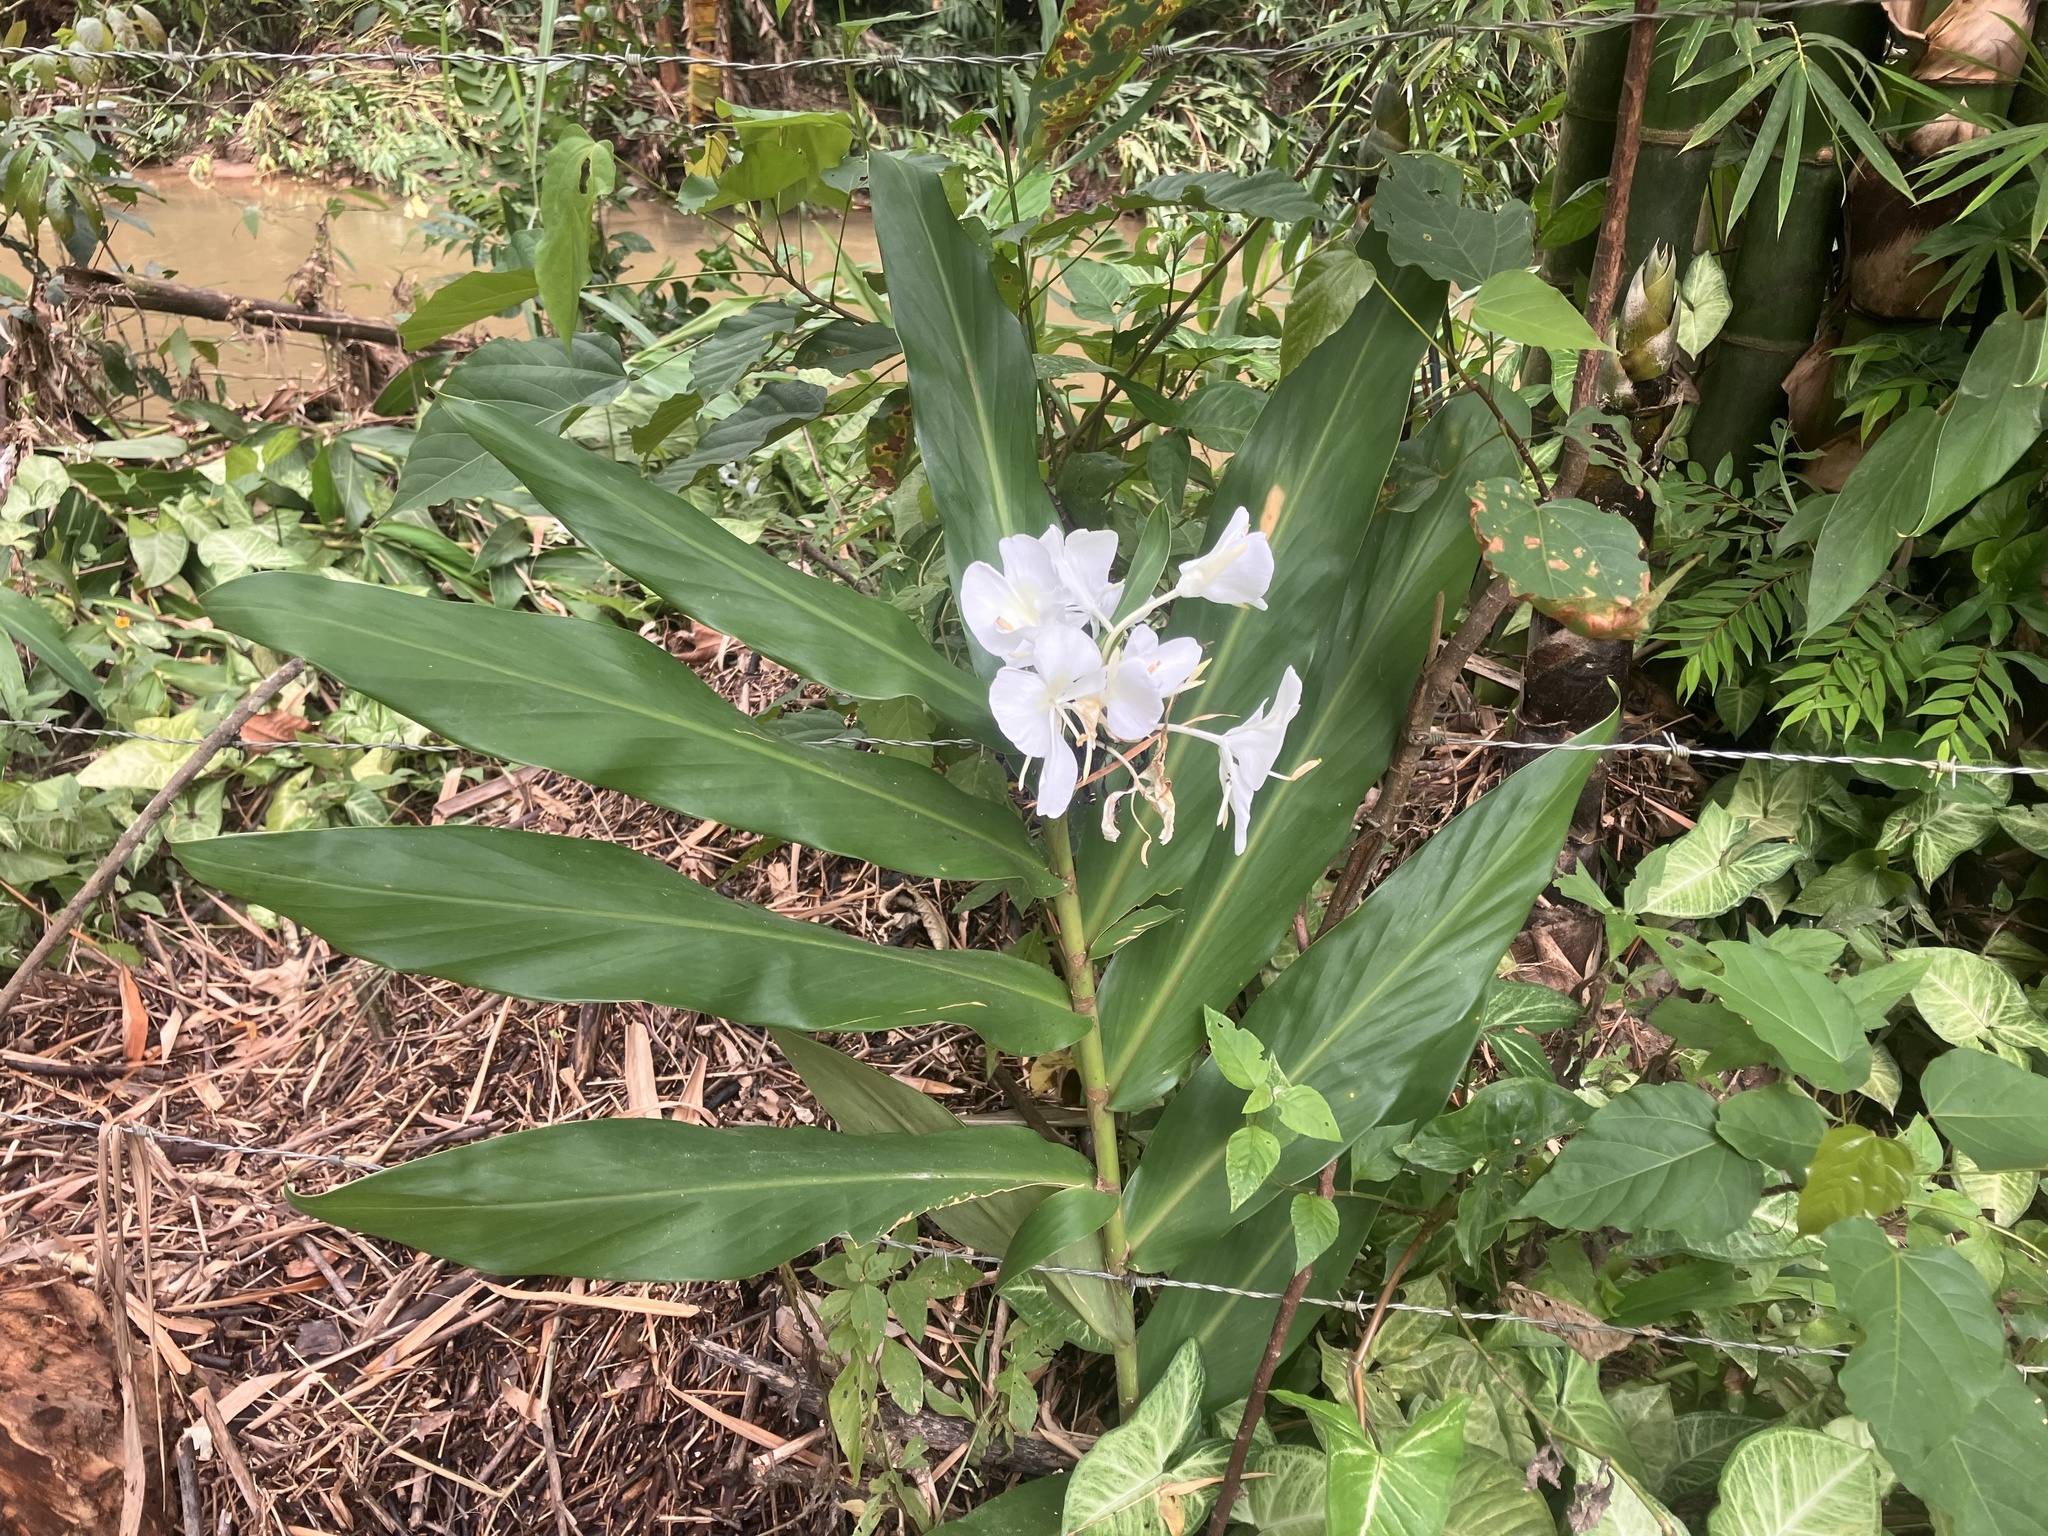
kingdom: Plantae
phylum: Tracheophyta
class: Liliopsida
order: Zingiberales
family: Zingiberaceae
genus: Hedychium
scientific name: Hedychium coronarium
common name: White garland-lily
